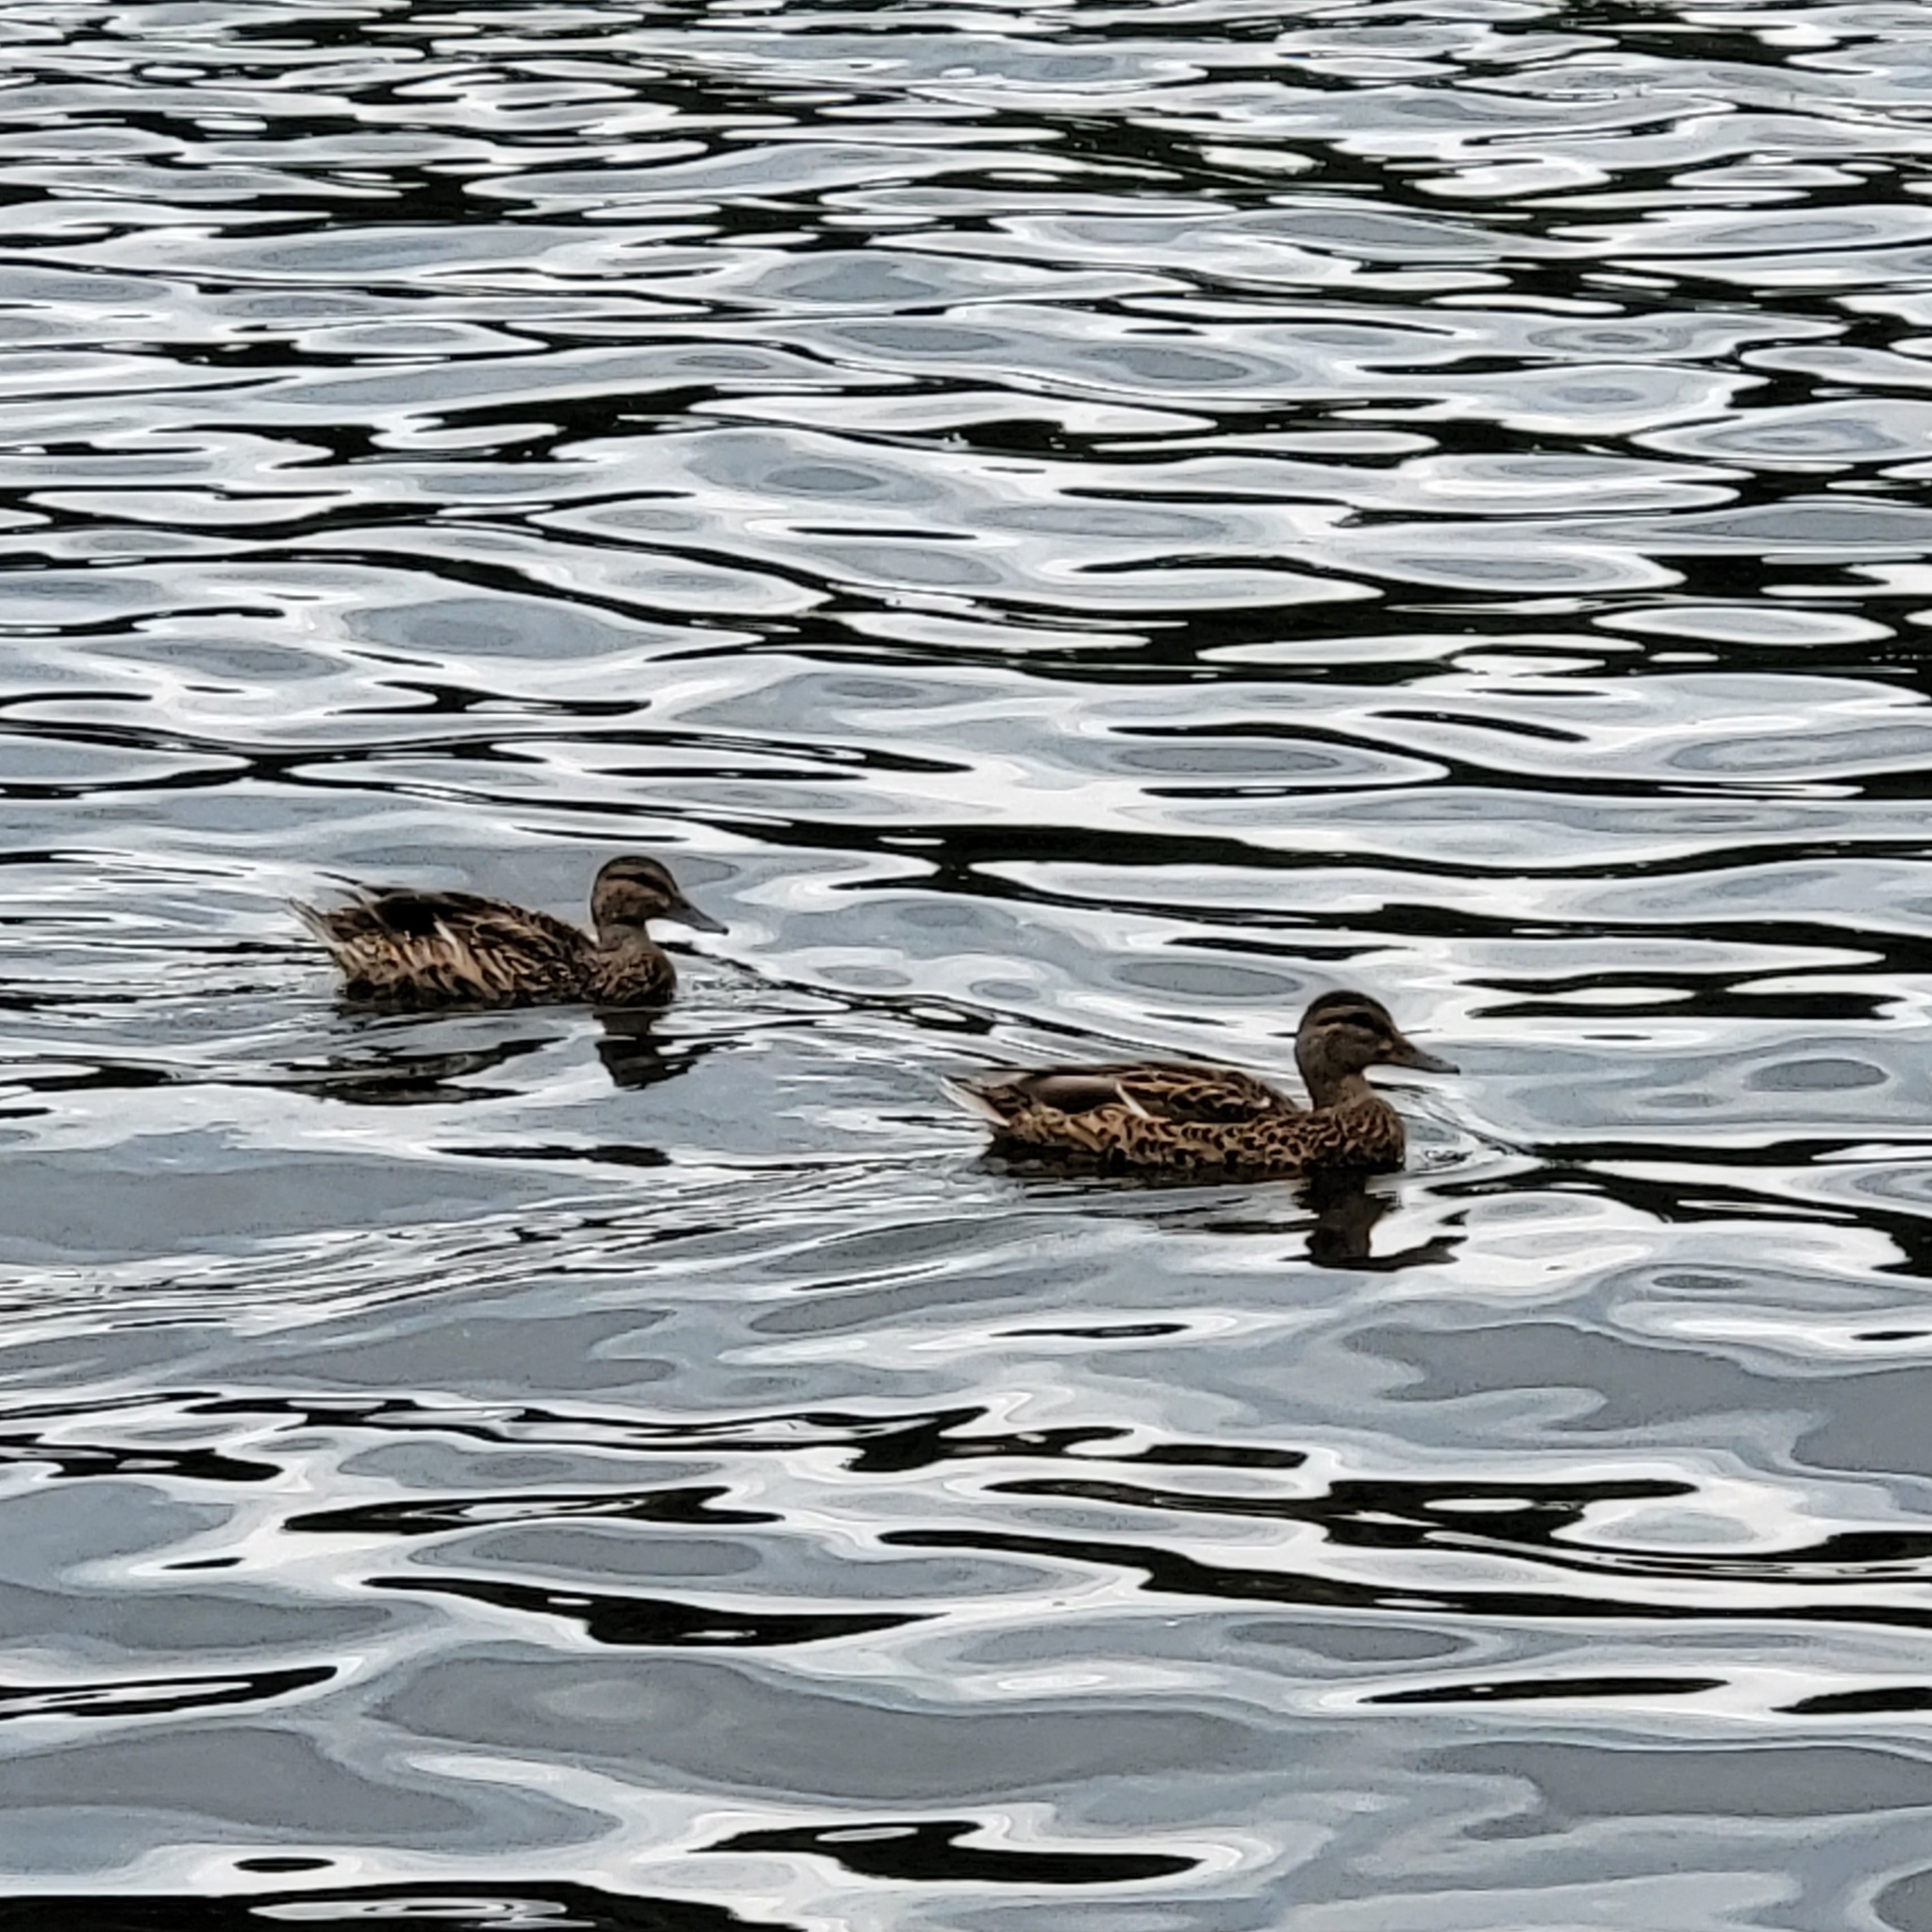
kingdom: Animalia
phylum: Chordata
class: Aves
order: Anseriformes
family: Anatidae
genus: Anas
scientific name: Anas platyrhynchos
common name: Mallard
